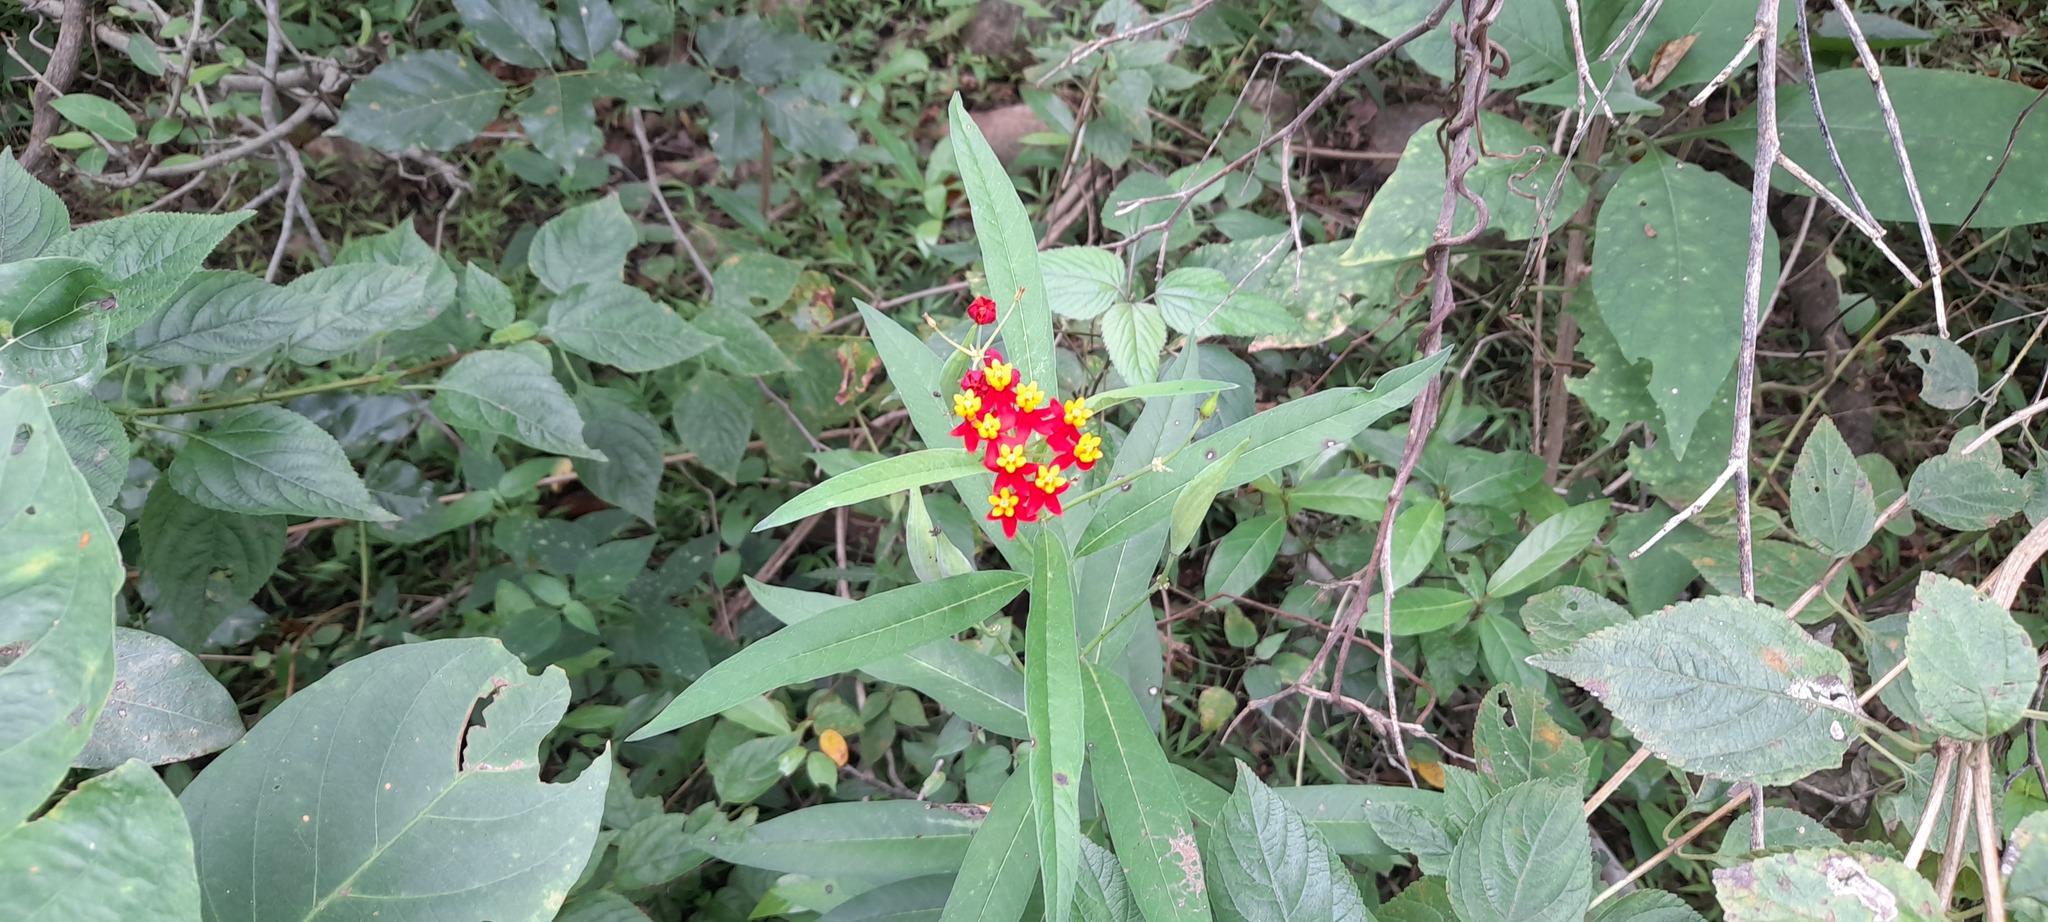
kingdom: Plantae
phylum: Tracheophyta
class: Magnoliopsida
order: Gentianales
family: Apocynaceae
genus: Asclepias
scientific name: Asclepias curassavica
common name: Bloodflower
